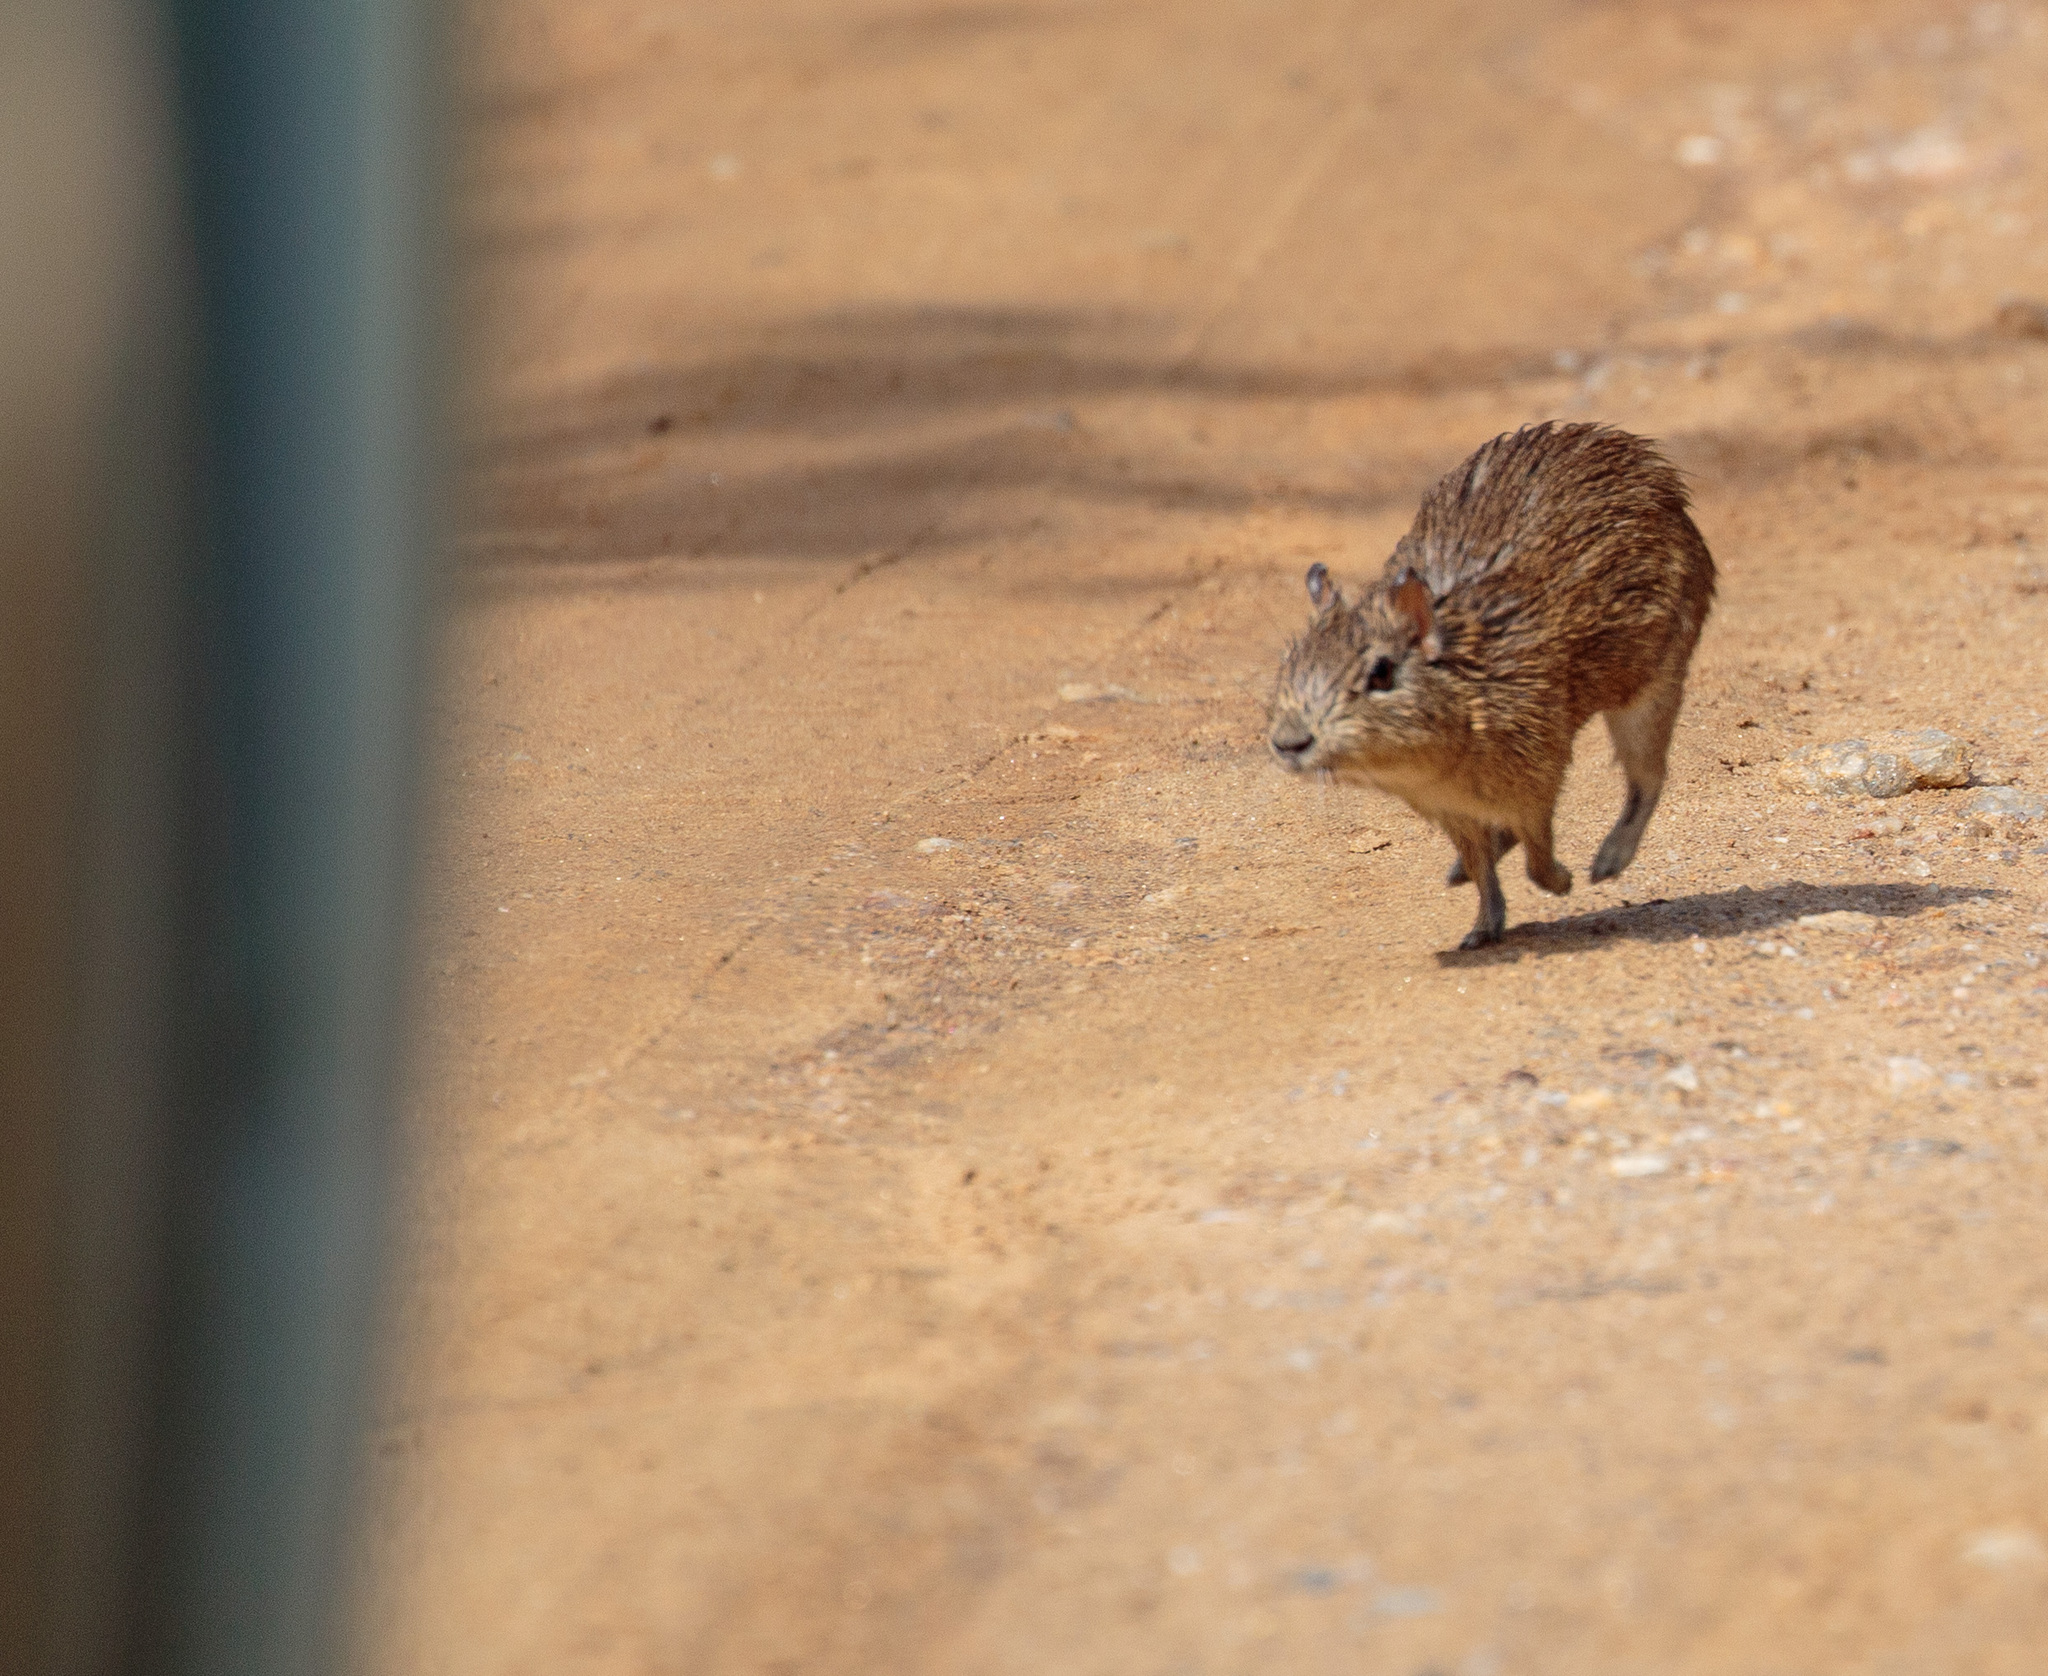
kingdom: Animalia
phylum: Chordata
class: Mammalia
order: Rodentia
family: Caviidae
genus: Galea
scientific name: Galea spixii
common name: Spix's yellow-toothed cavy
